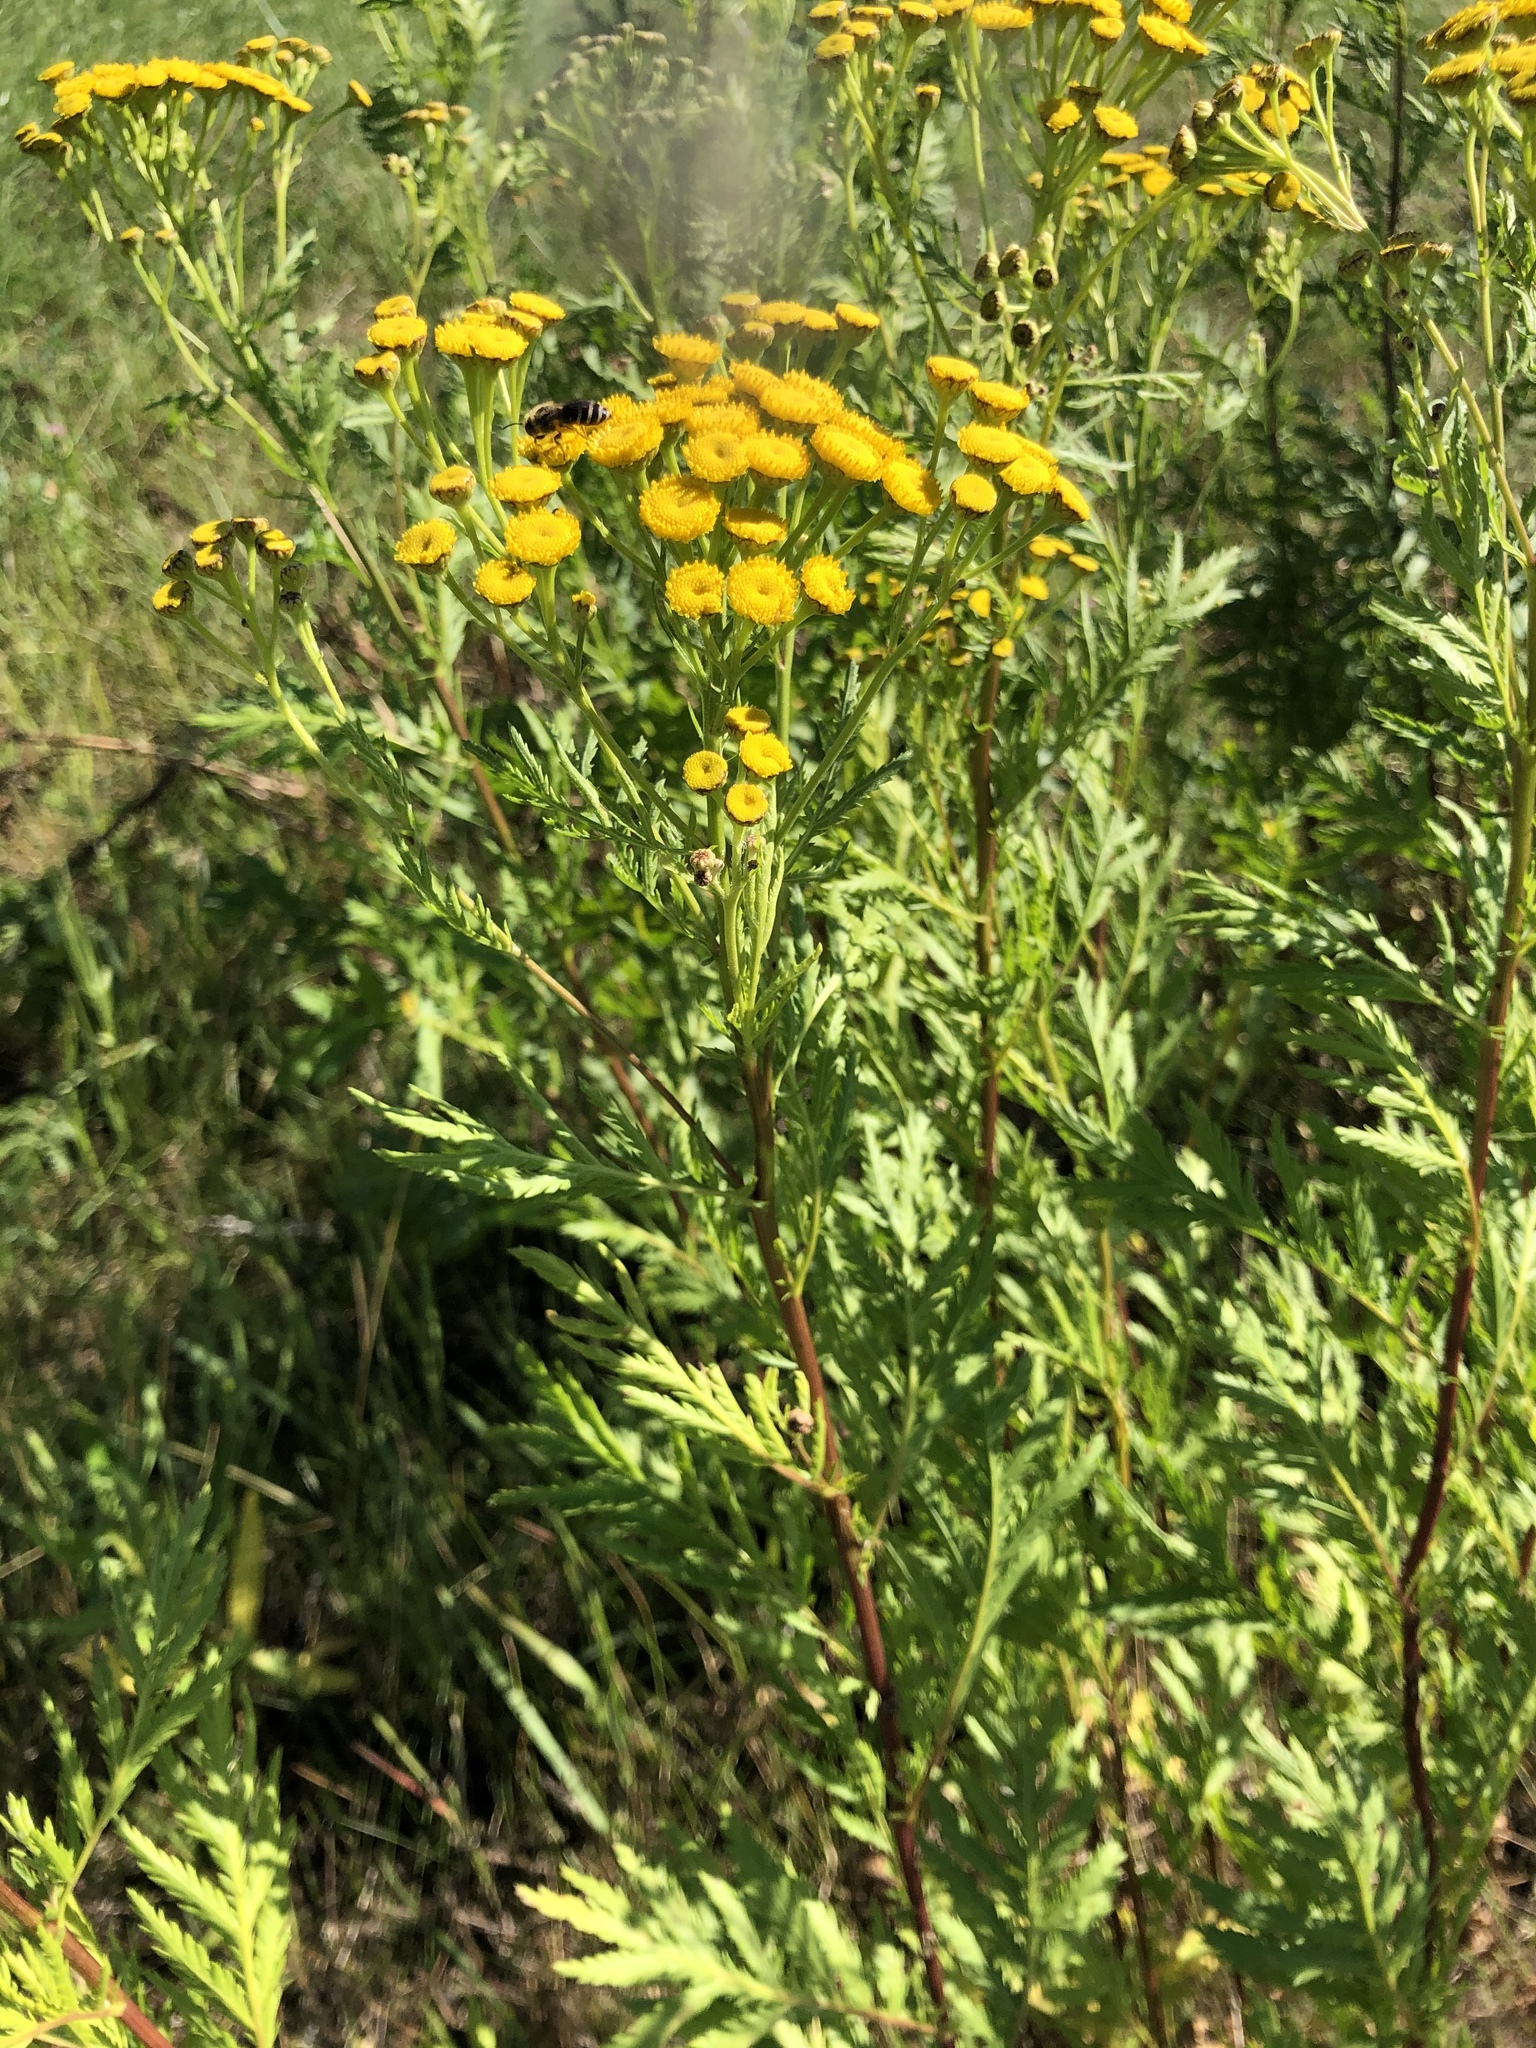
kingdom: Plantae
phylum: Tracheophyta
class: Magnoliopsida
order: Asterales
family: Asteraceae
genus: Tanacetum
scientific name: Tanacetum vulgare
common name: Common tansy
